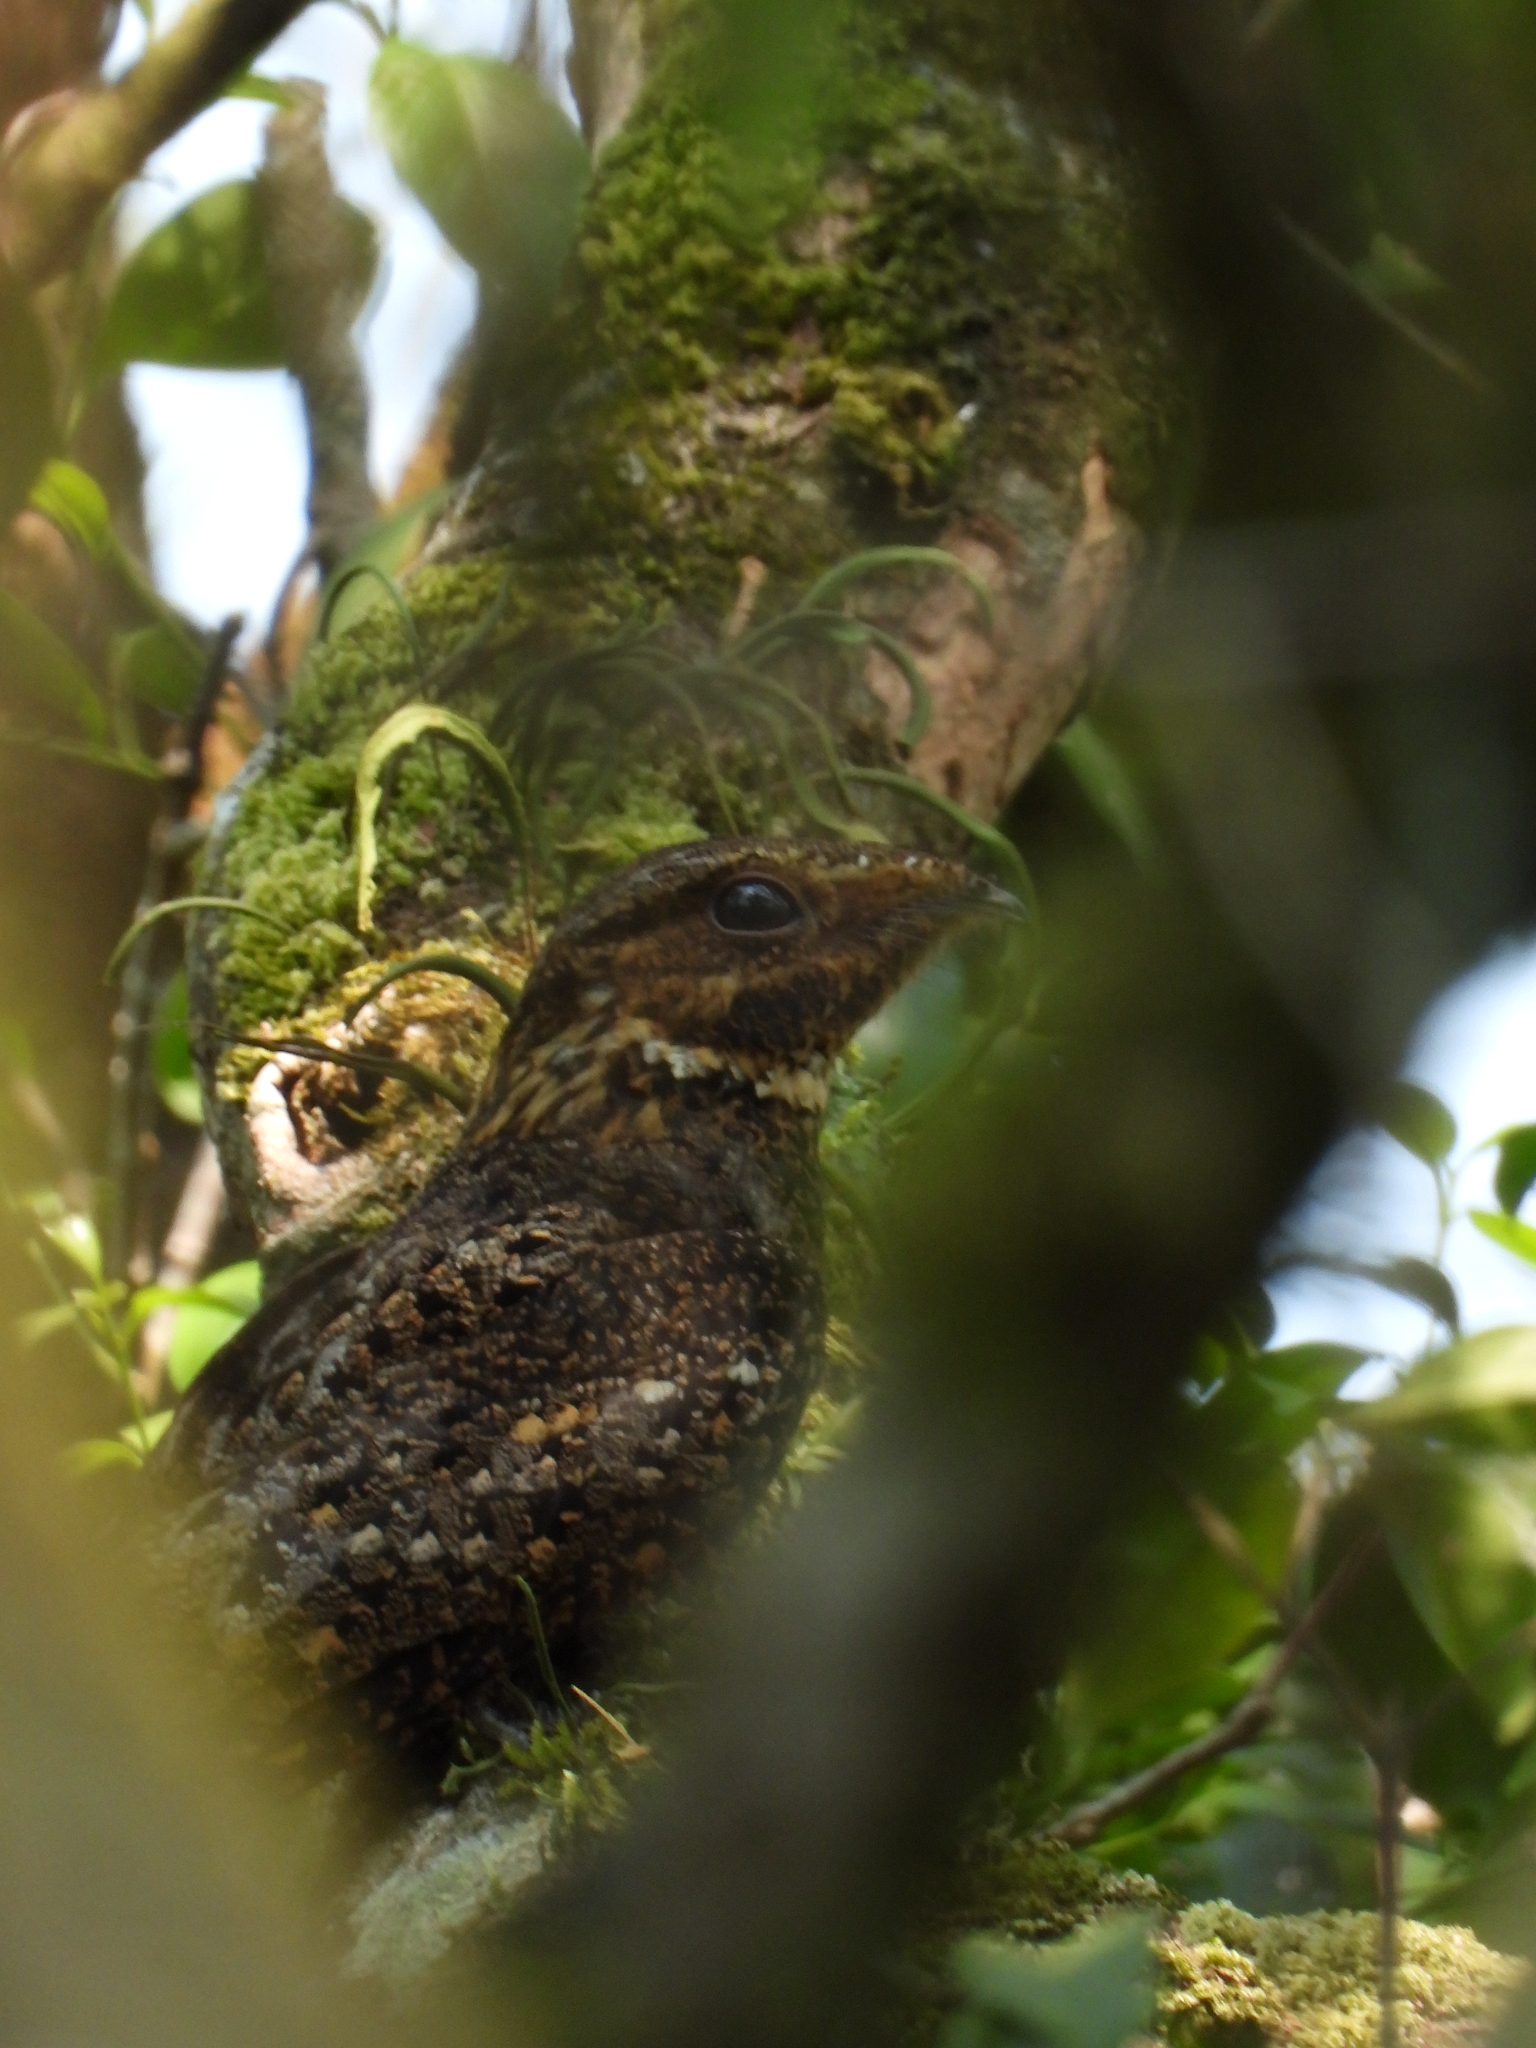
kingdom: Animalia
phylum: Chordata
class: Aves
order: Caprimulgiformes
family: Caprimulgidae
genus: Antrostomus
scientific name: Antrostomus carolinensis
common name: Chuck-will's-widow
